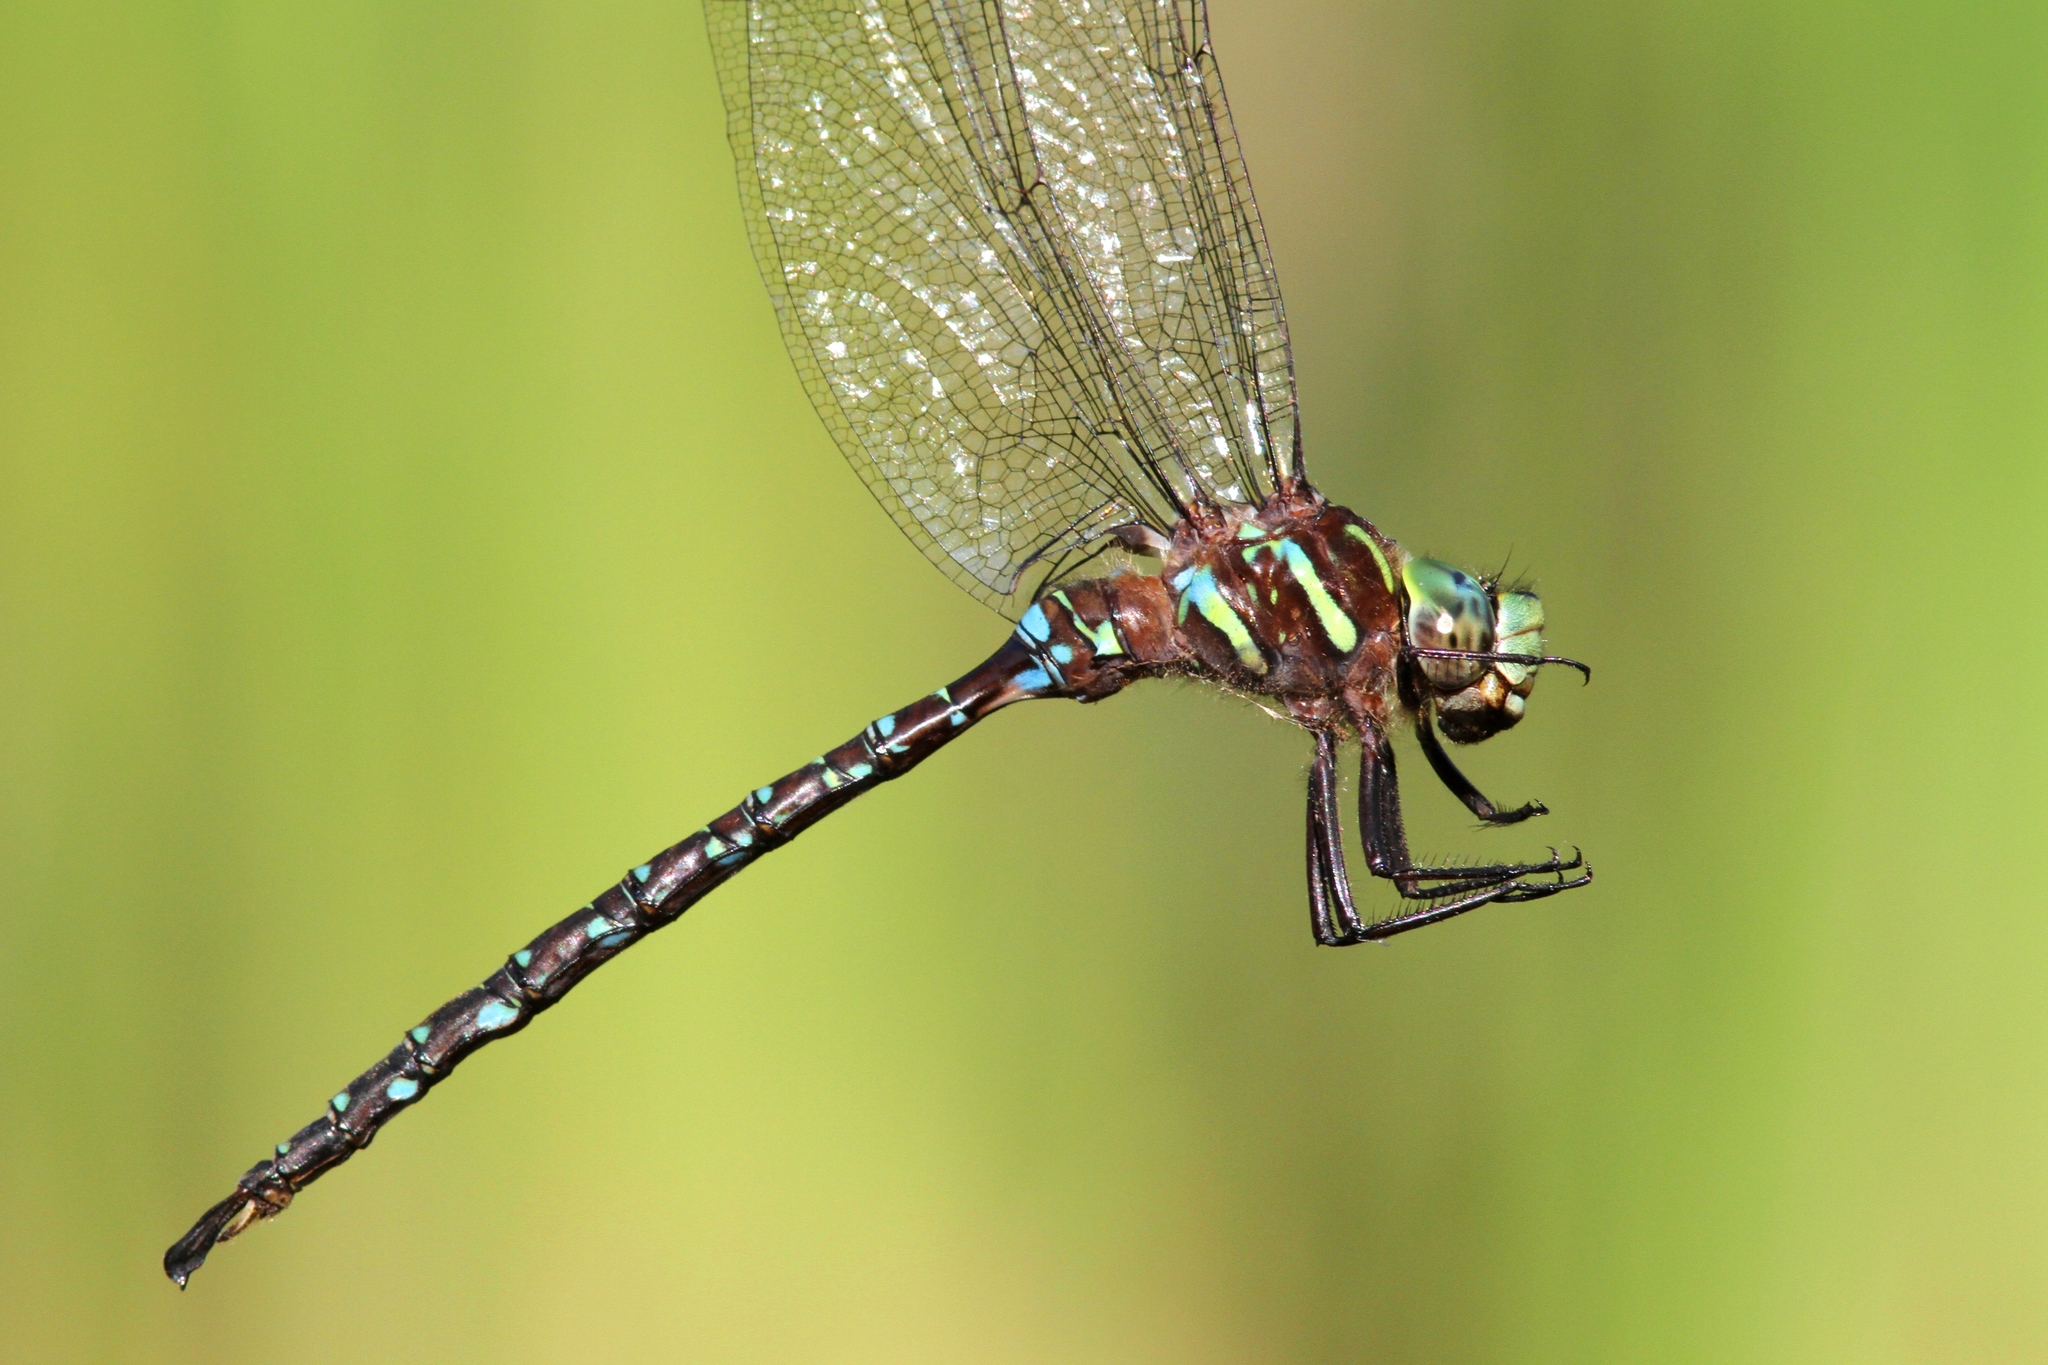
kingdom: Animalia
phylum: Arthropoda
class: Insecta
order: Odonata
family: Aeshnidae
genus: Aeshna
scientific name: Aeshna umbrosa
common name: Shadow darner
